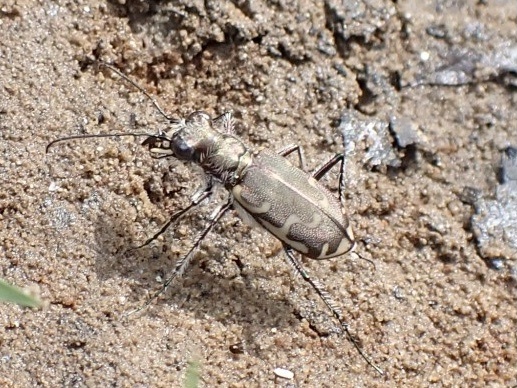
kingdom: Animalia
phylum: Arthropoda
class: Insecta
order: Coleoptera
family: Carabidae
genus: Cicindela
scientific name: Cicindela repanda
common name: Bronzed tiger beetle
